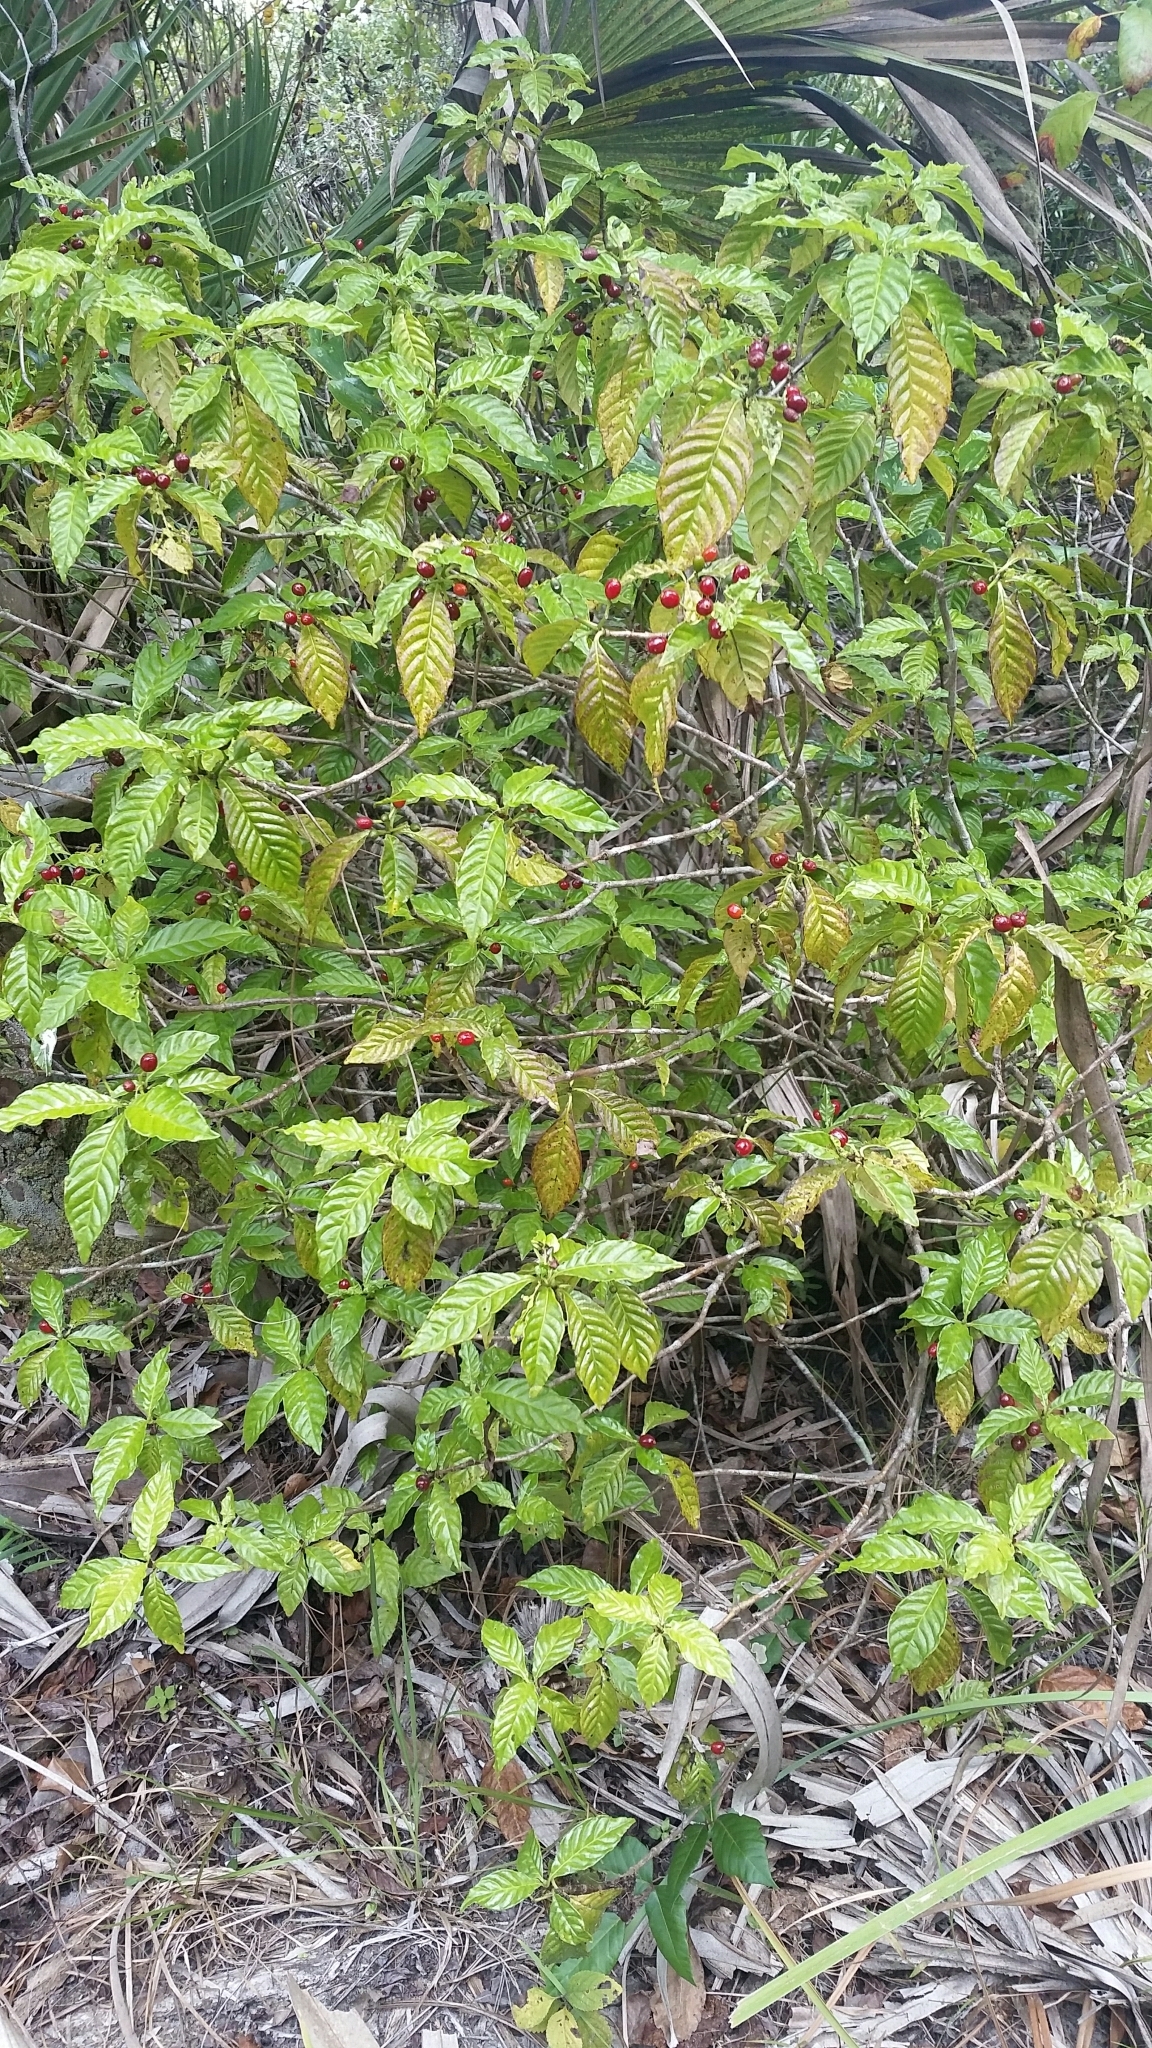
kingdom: Plantae
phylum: Tracheophyta
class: Magnoliopsida
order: Gentianales
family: Rubiaceae
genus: Psychotria
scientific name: Psychotria nervosa
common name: Bastard cankerberry
